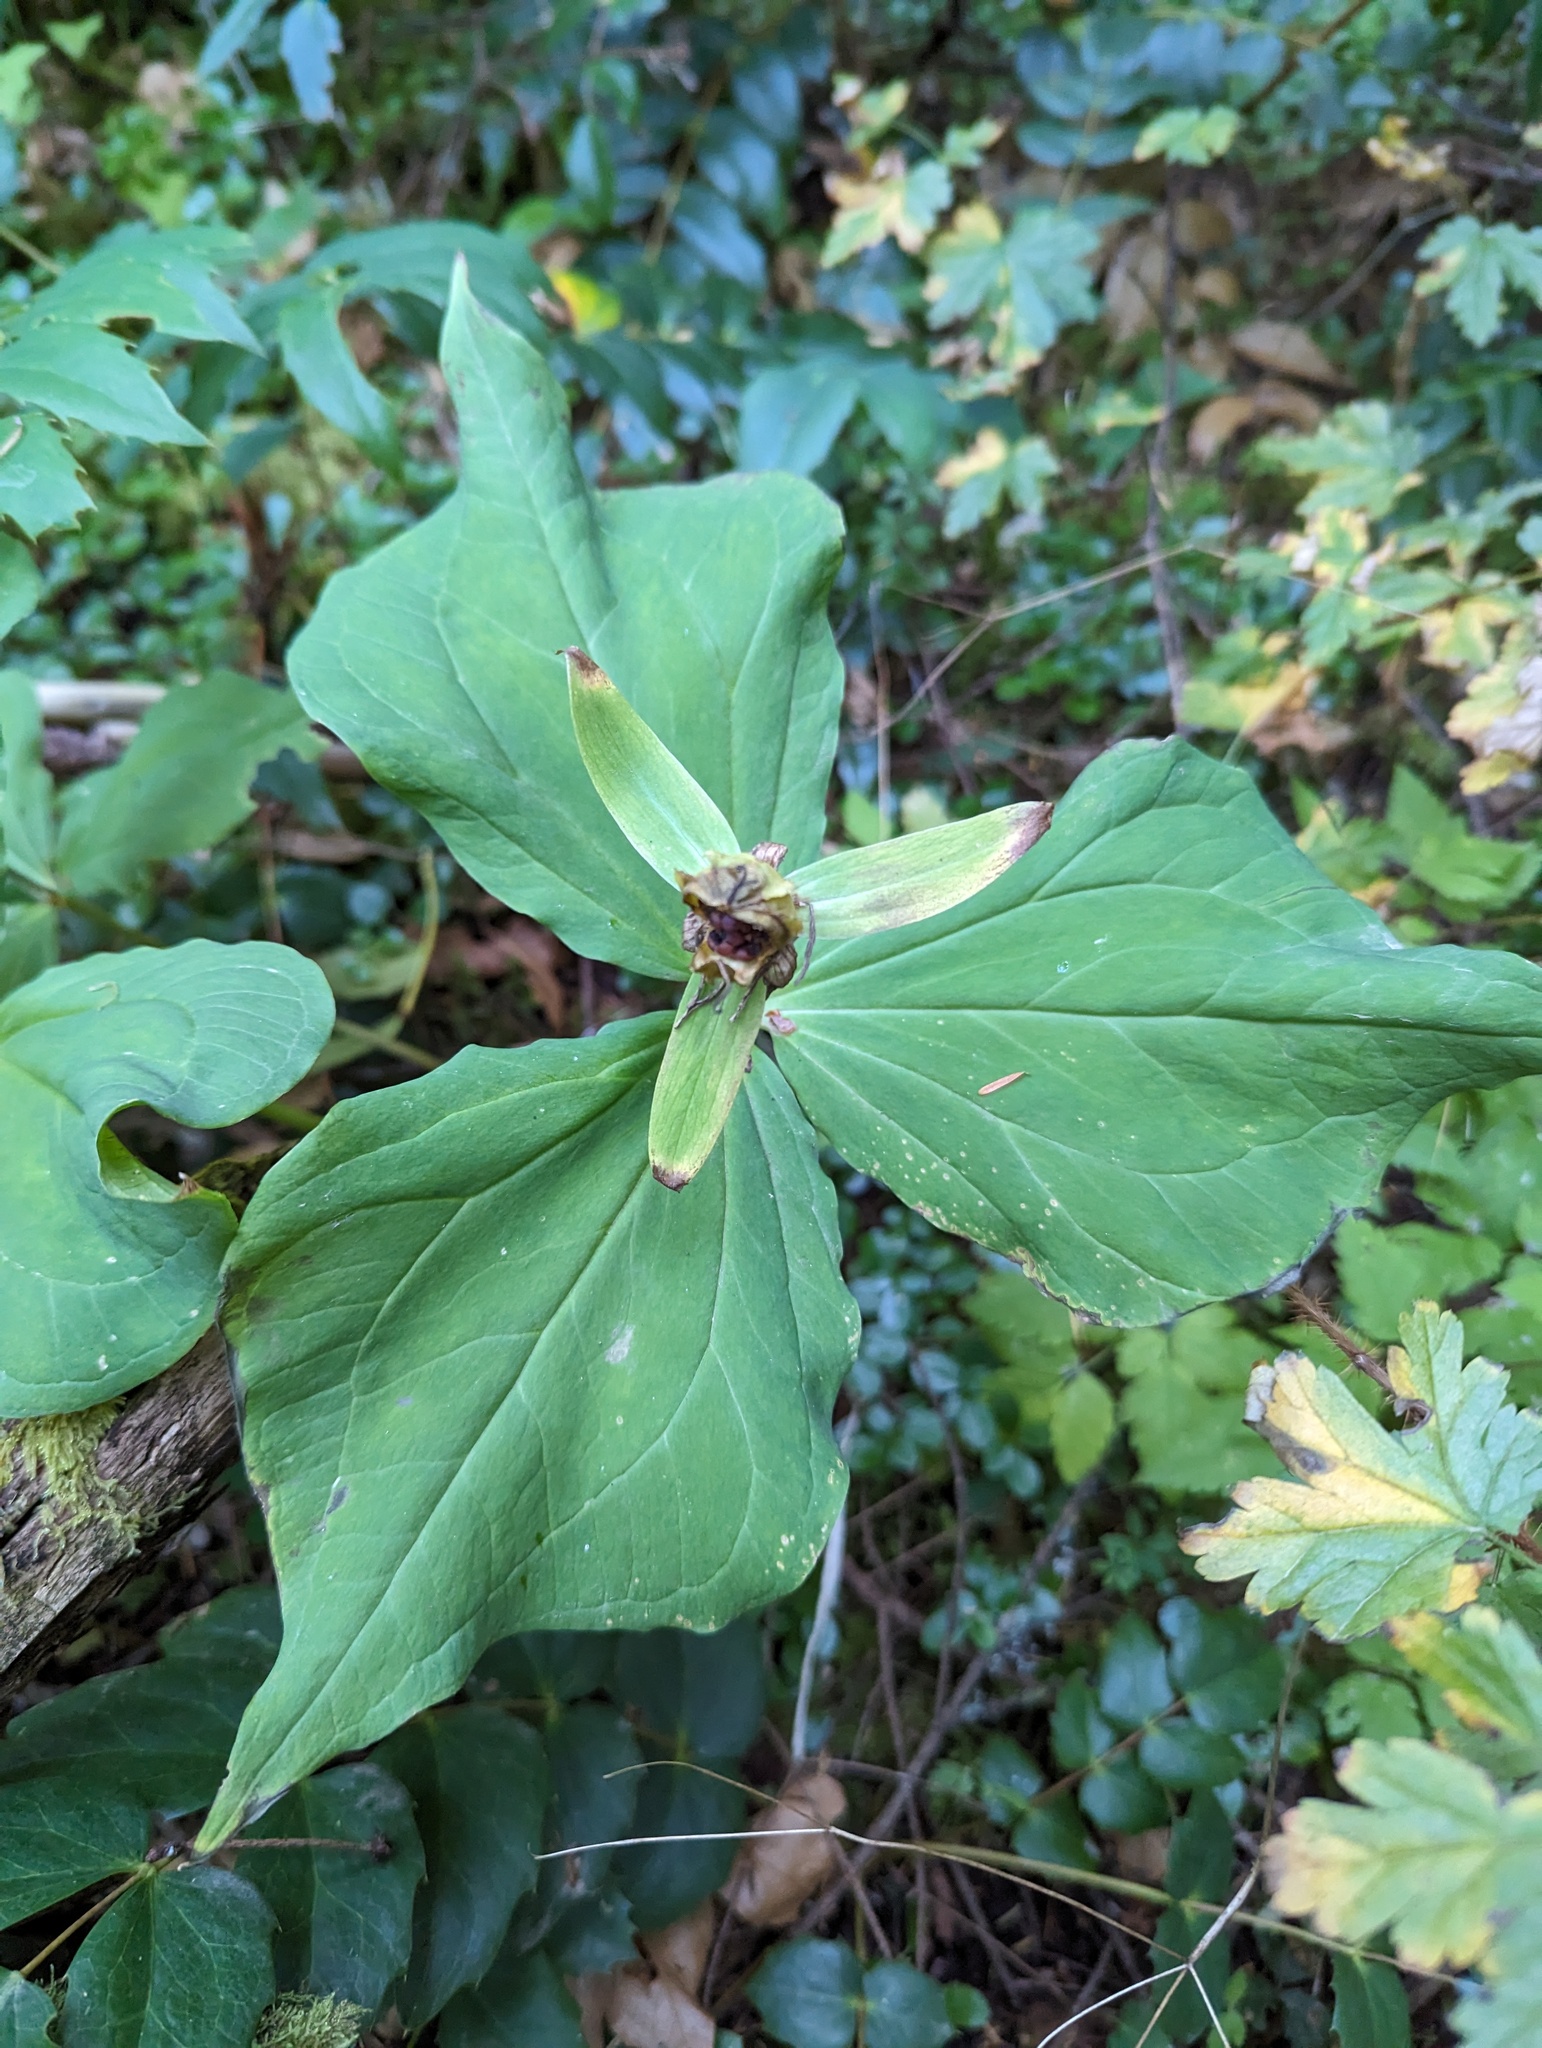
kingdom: Plantae
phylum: Tracheophyta
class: Liliopsida
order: Liliales
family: Melanthiaceae
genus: Trillium
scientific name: Trillium ovatum
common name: Pacific trillium
